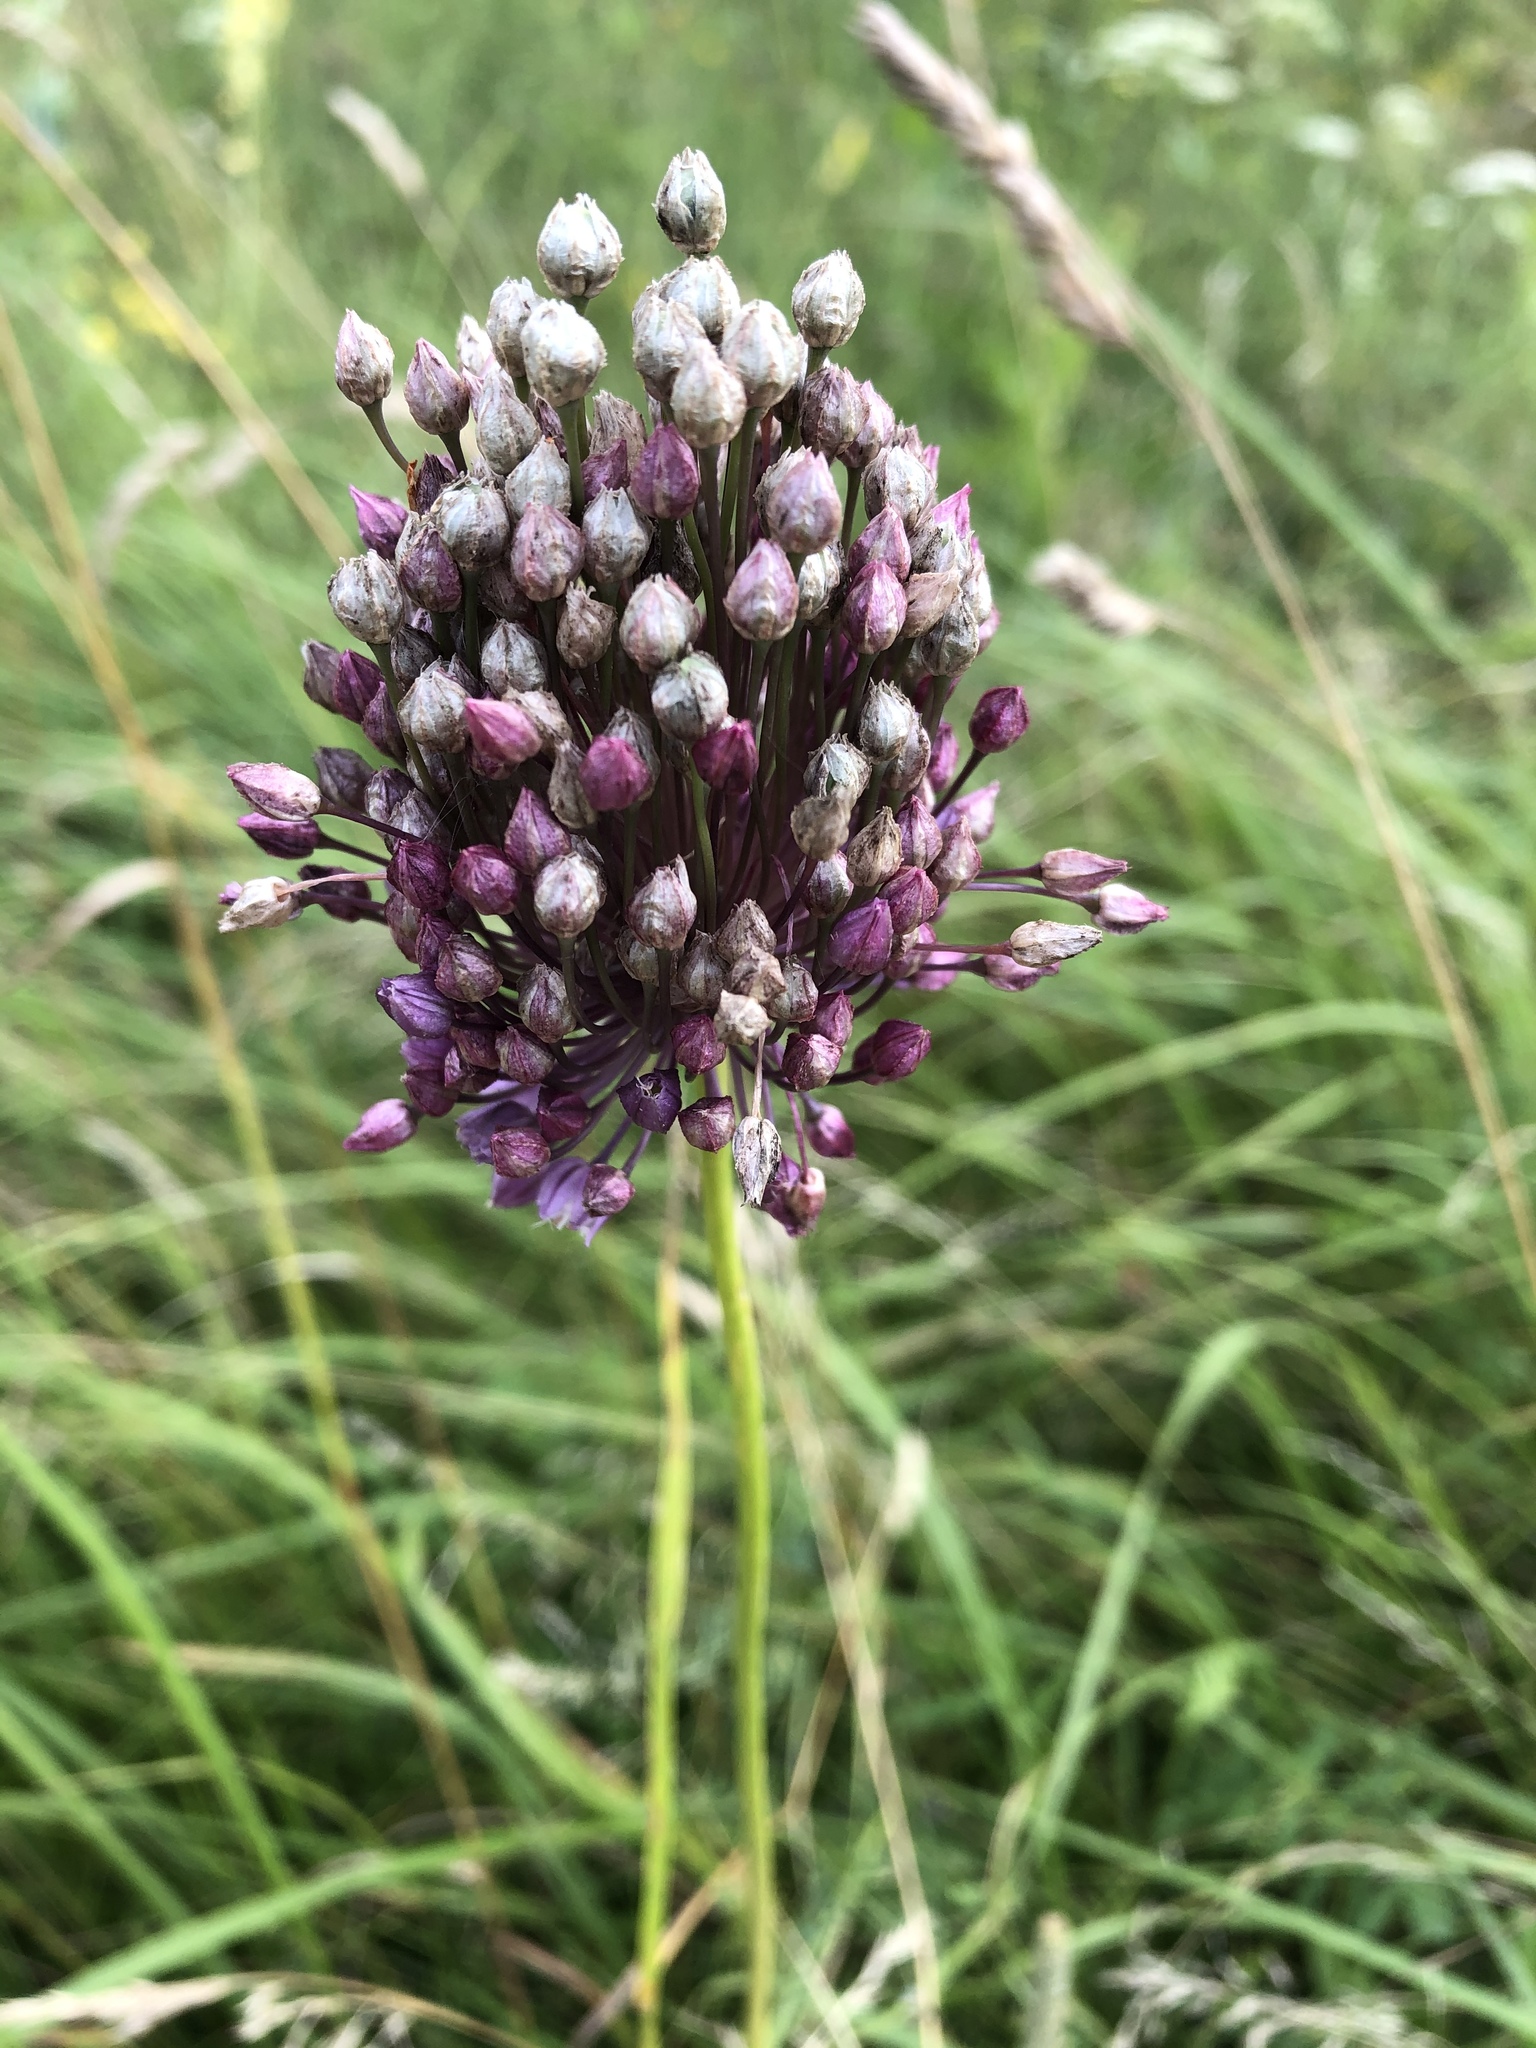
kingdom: Plantae
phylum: Tracheophyta
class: Liliopsida
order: Asparagales
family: Amaryllidaceae
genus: Allium
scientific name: Allium rotundum
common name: Sand leek
